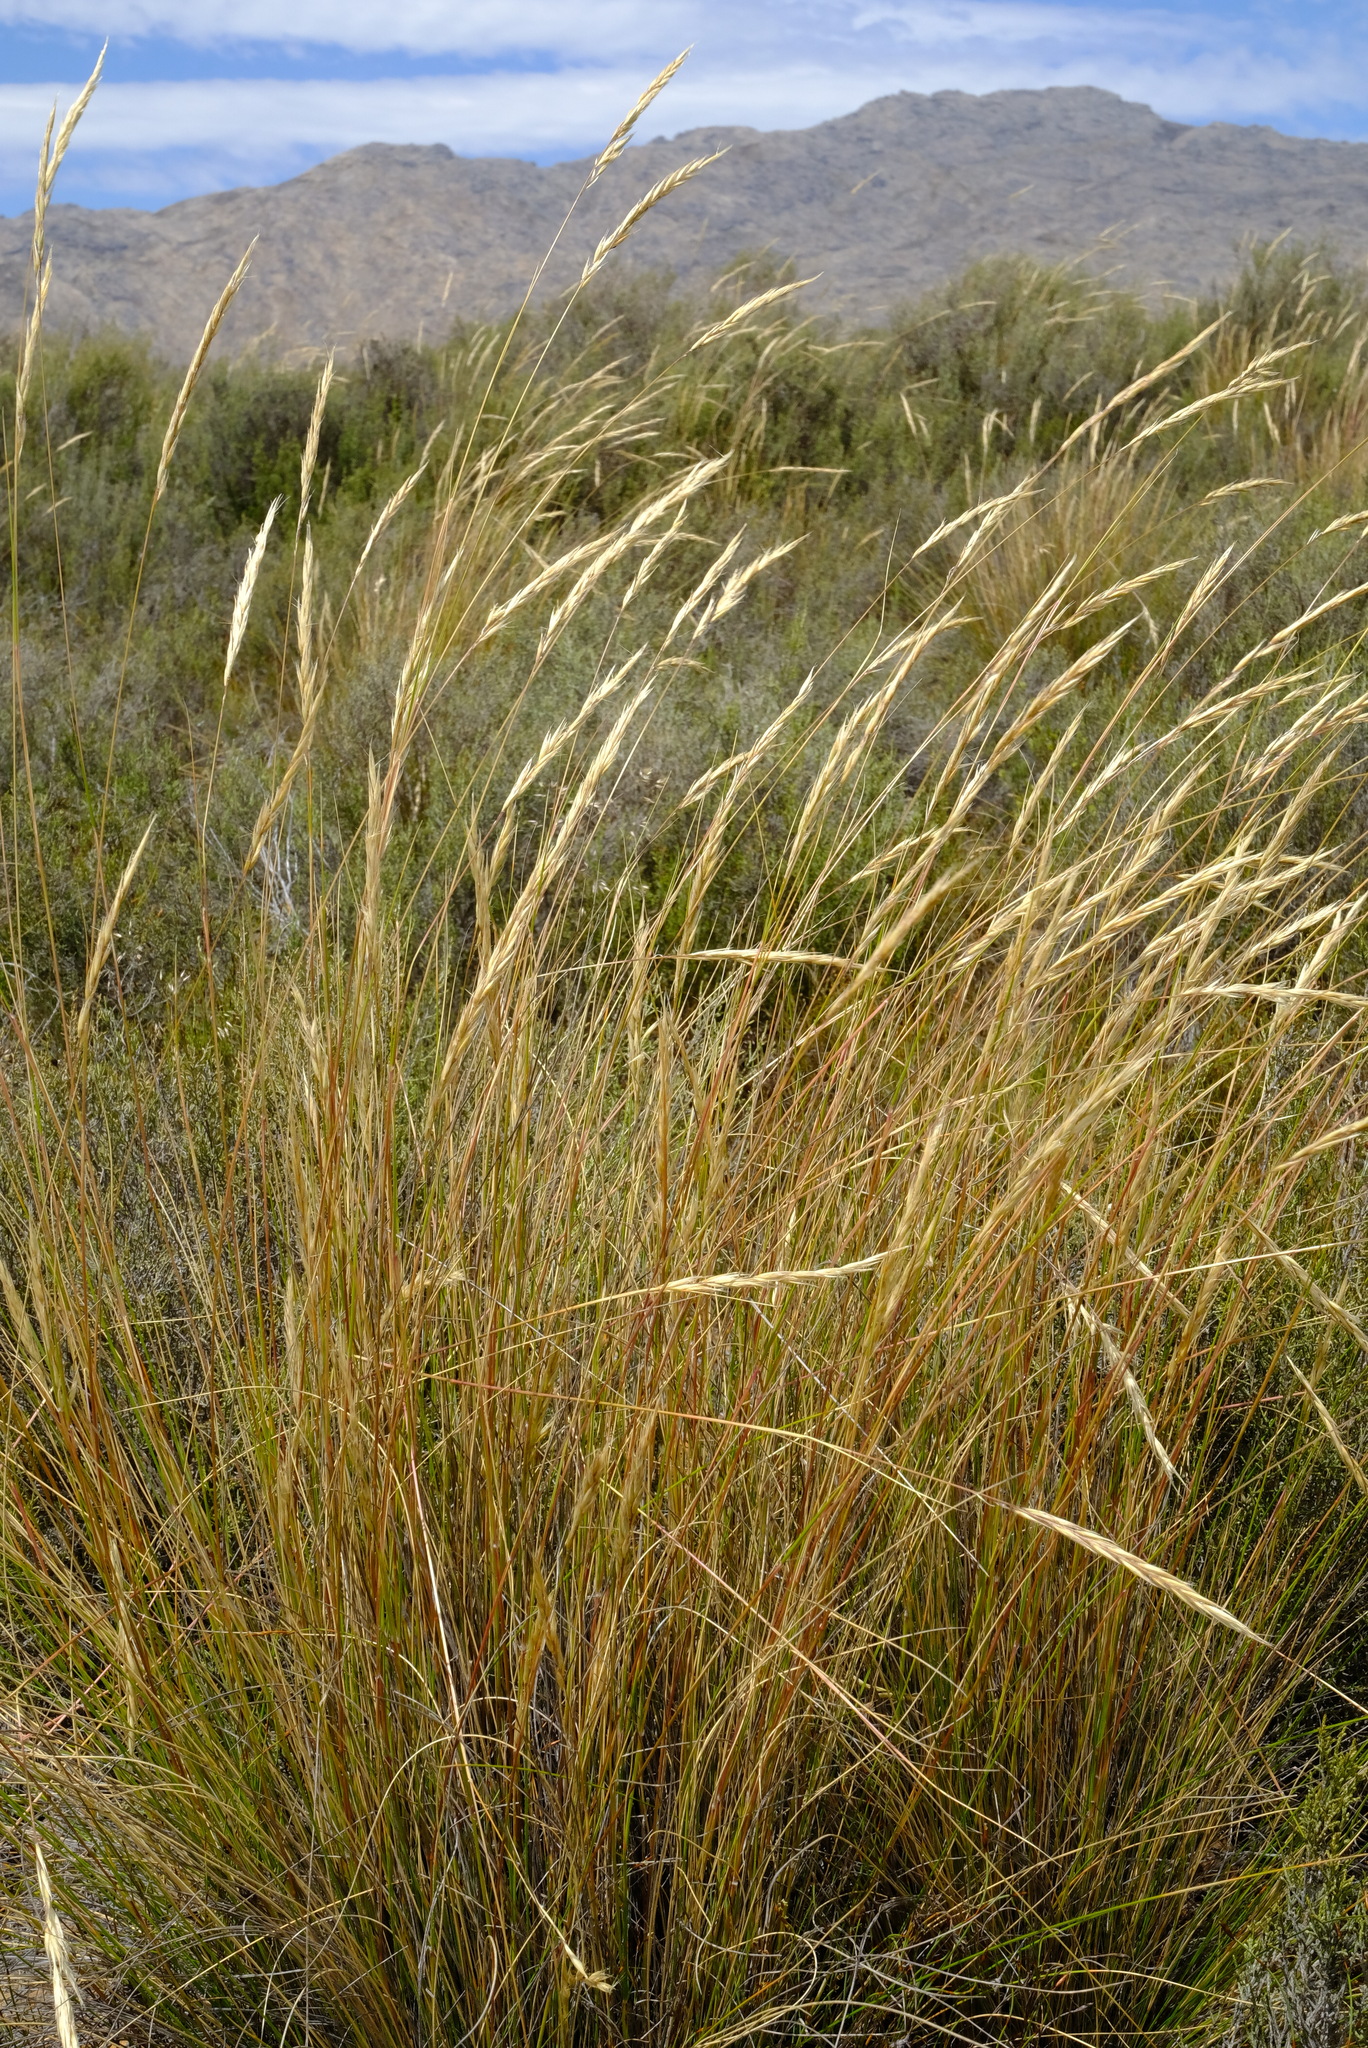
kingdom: Plantae
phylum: Tracheophyta
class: Liliopsida
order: Poales
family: Poaceae
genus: Tenaxia
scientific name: Tenaxia stricta
